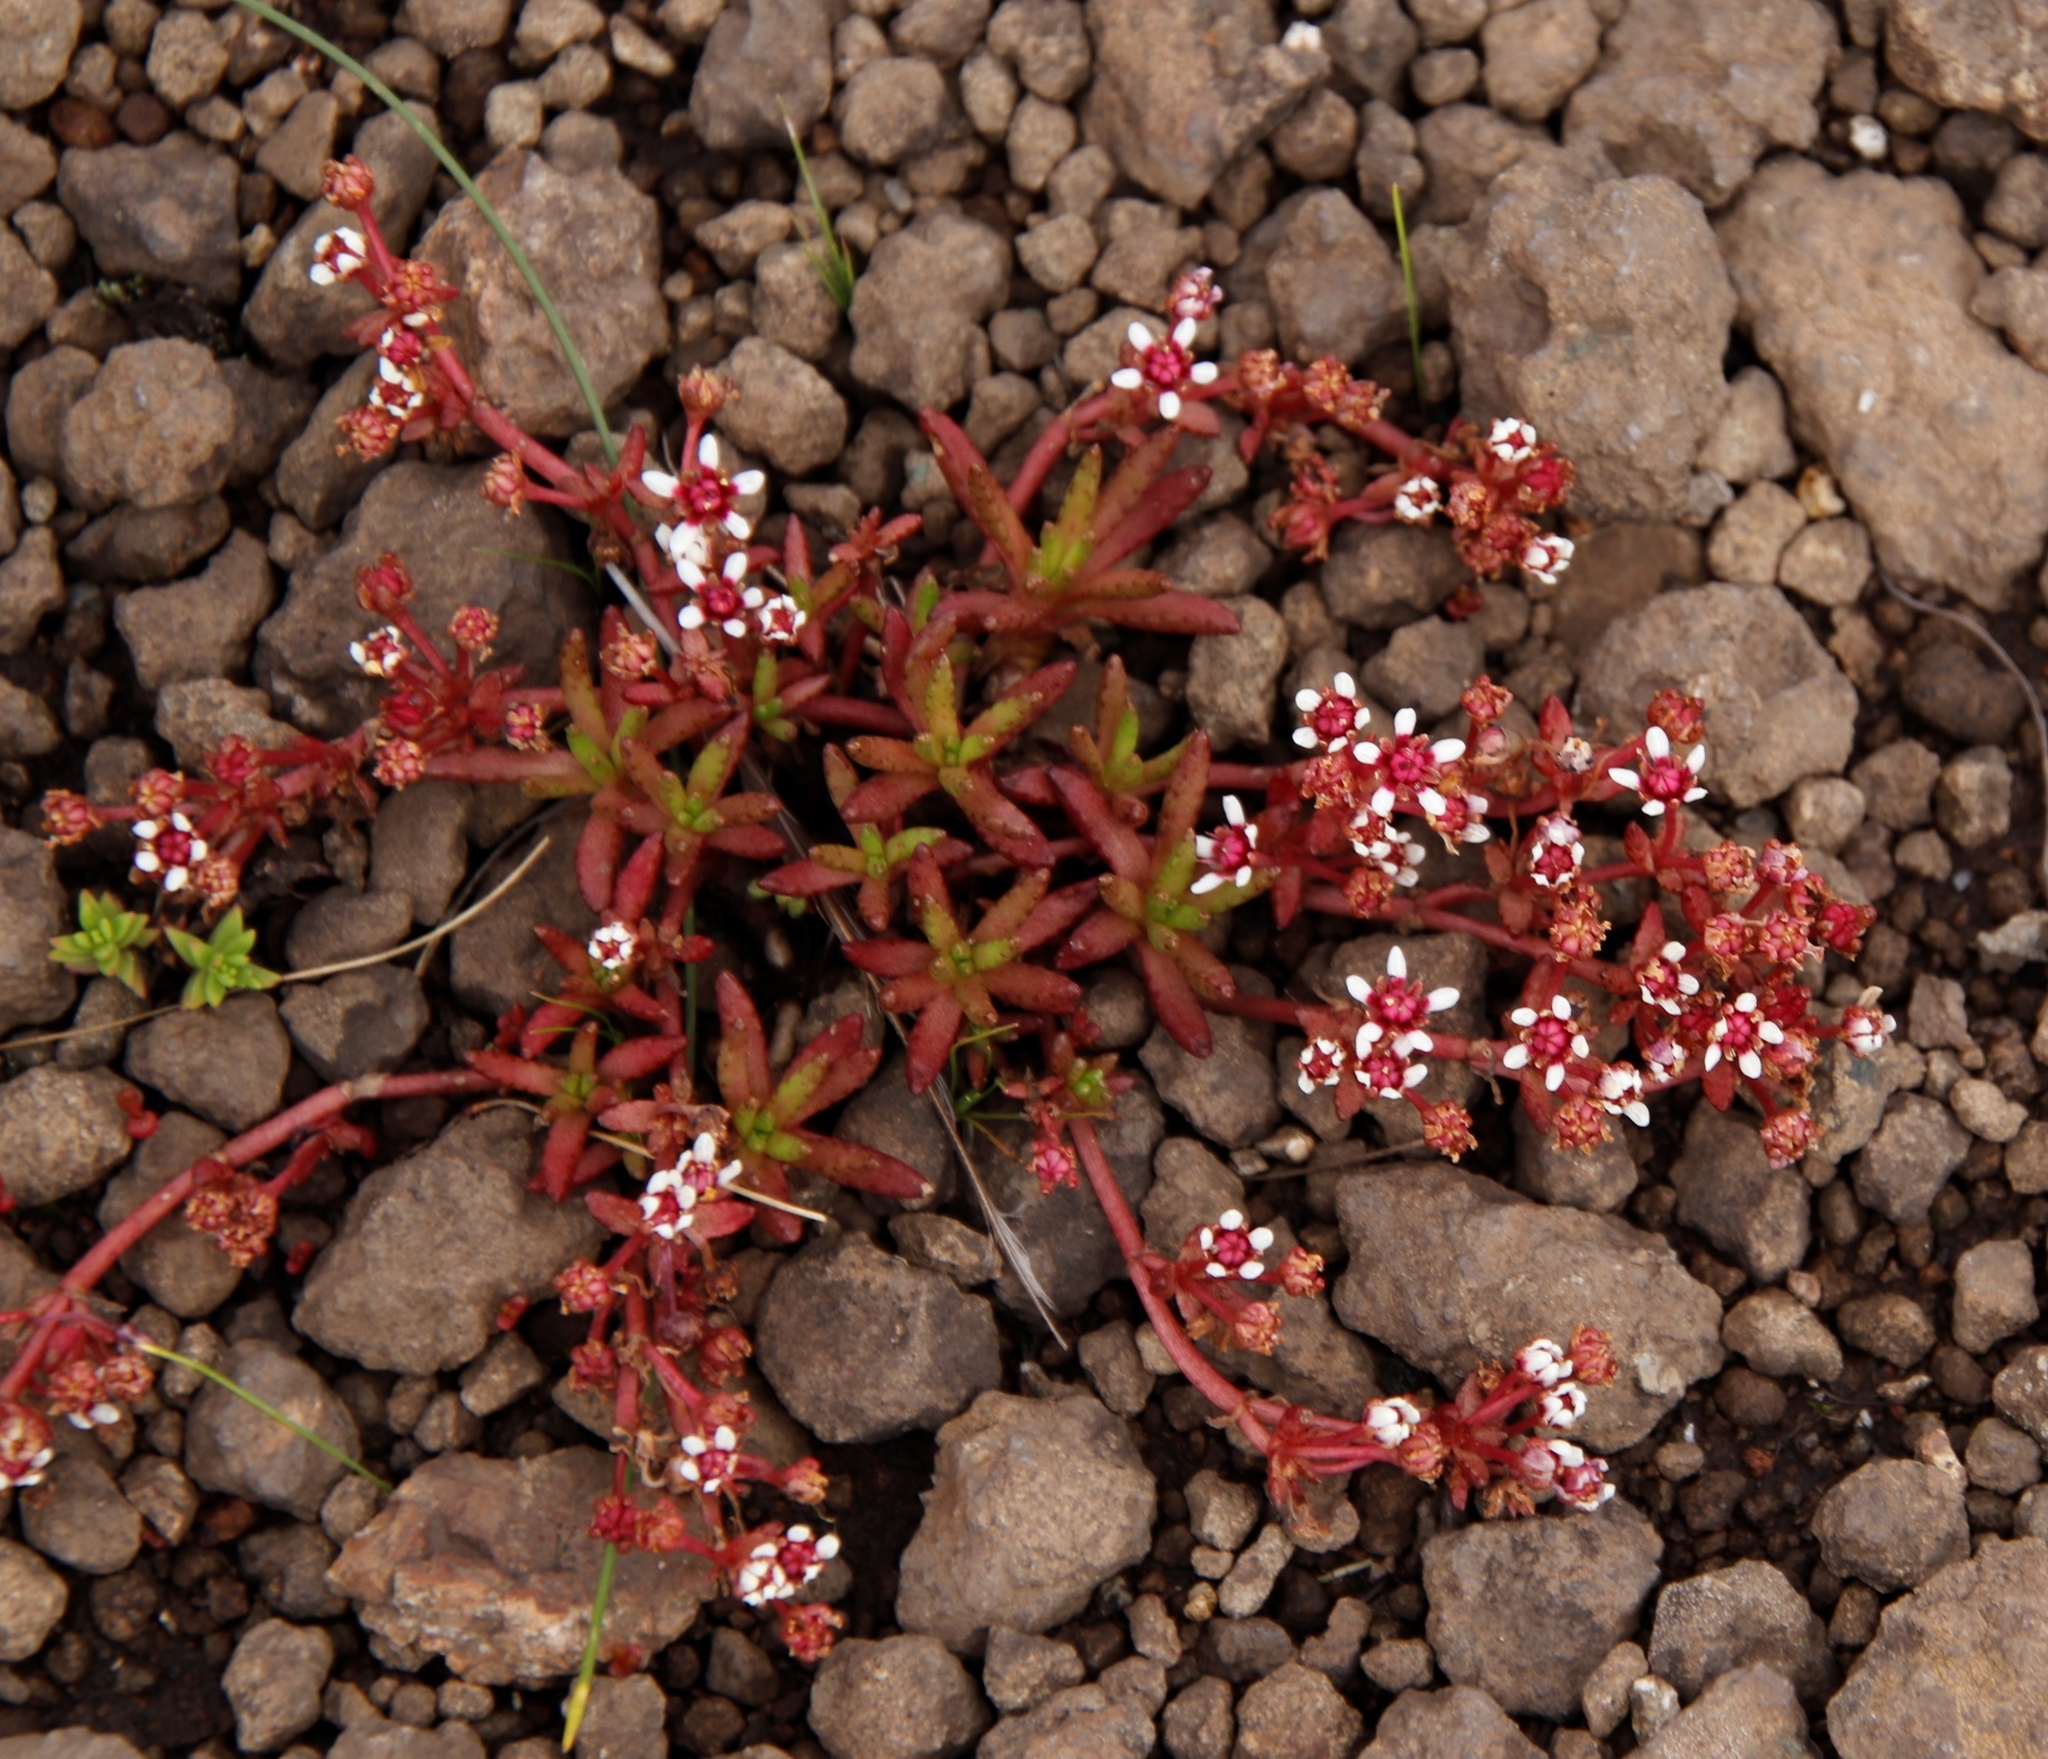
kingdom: Plantae
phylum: Tracheophyta
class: Magnoliopsida
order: Saxifragales
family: Crassulaceae
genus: Crassula
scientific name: Crassula peploides
